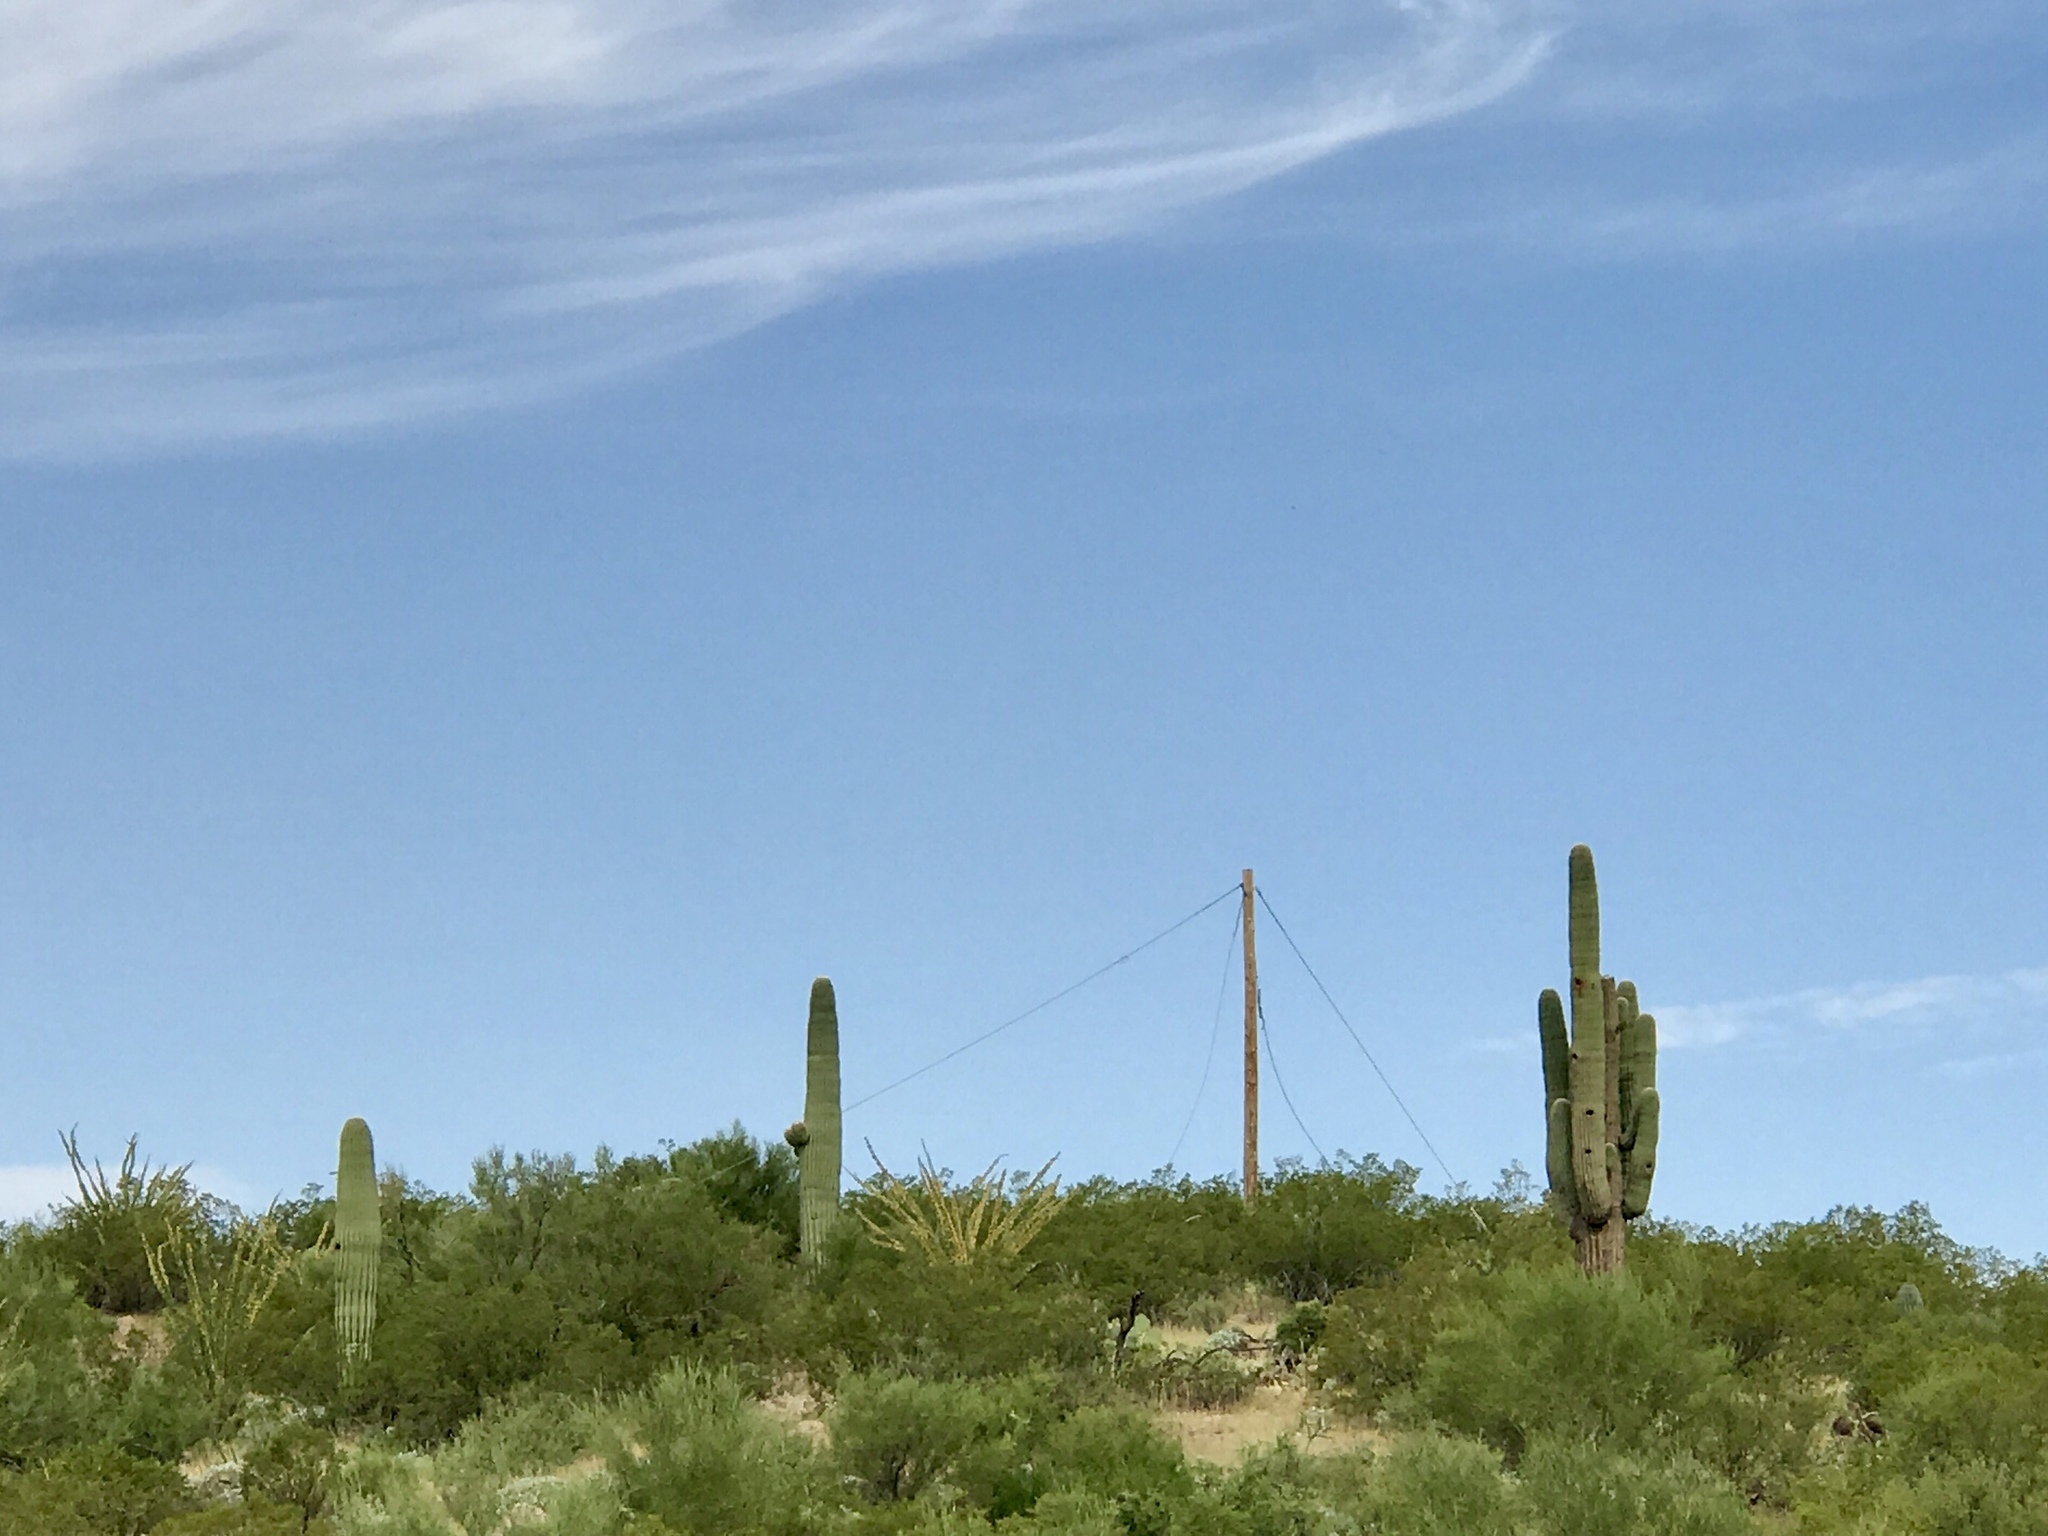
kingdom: Plantae
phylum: Tracheophyta
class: Magnoliopsida
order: Caryophyllales
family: Cactaceae
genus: Carnegiea
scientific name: Carnegiea gigantea
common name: Saguaro
